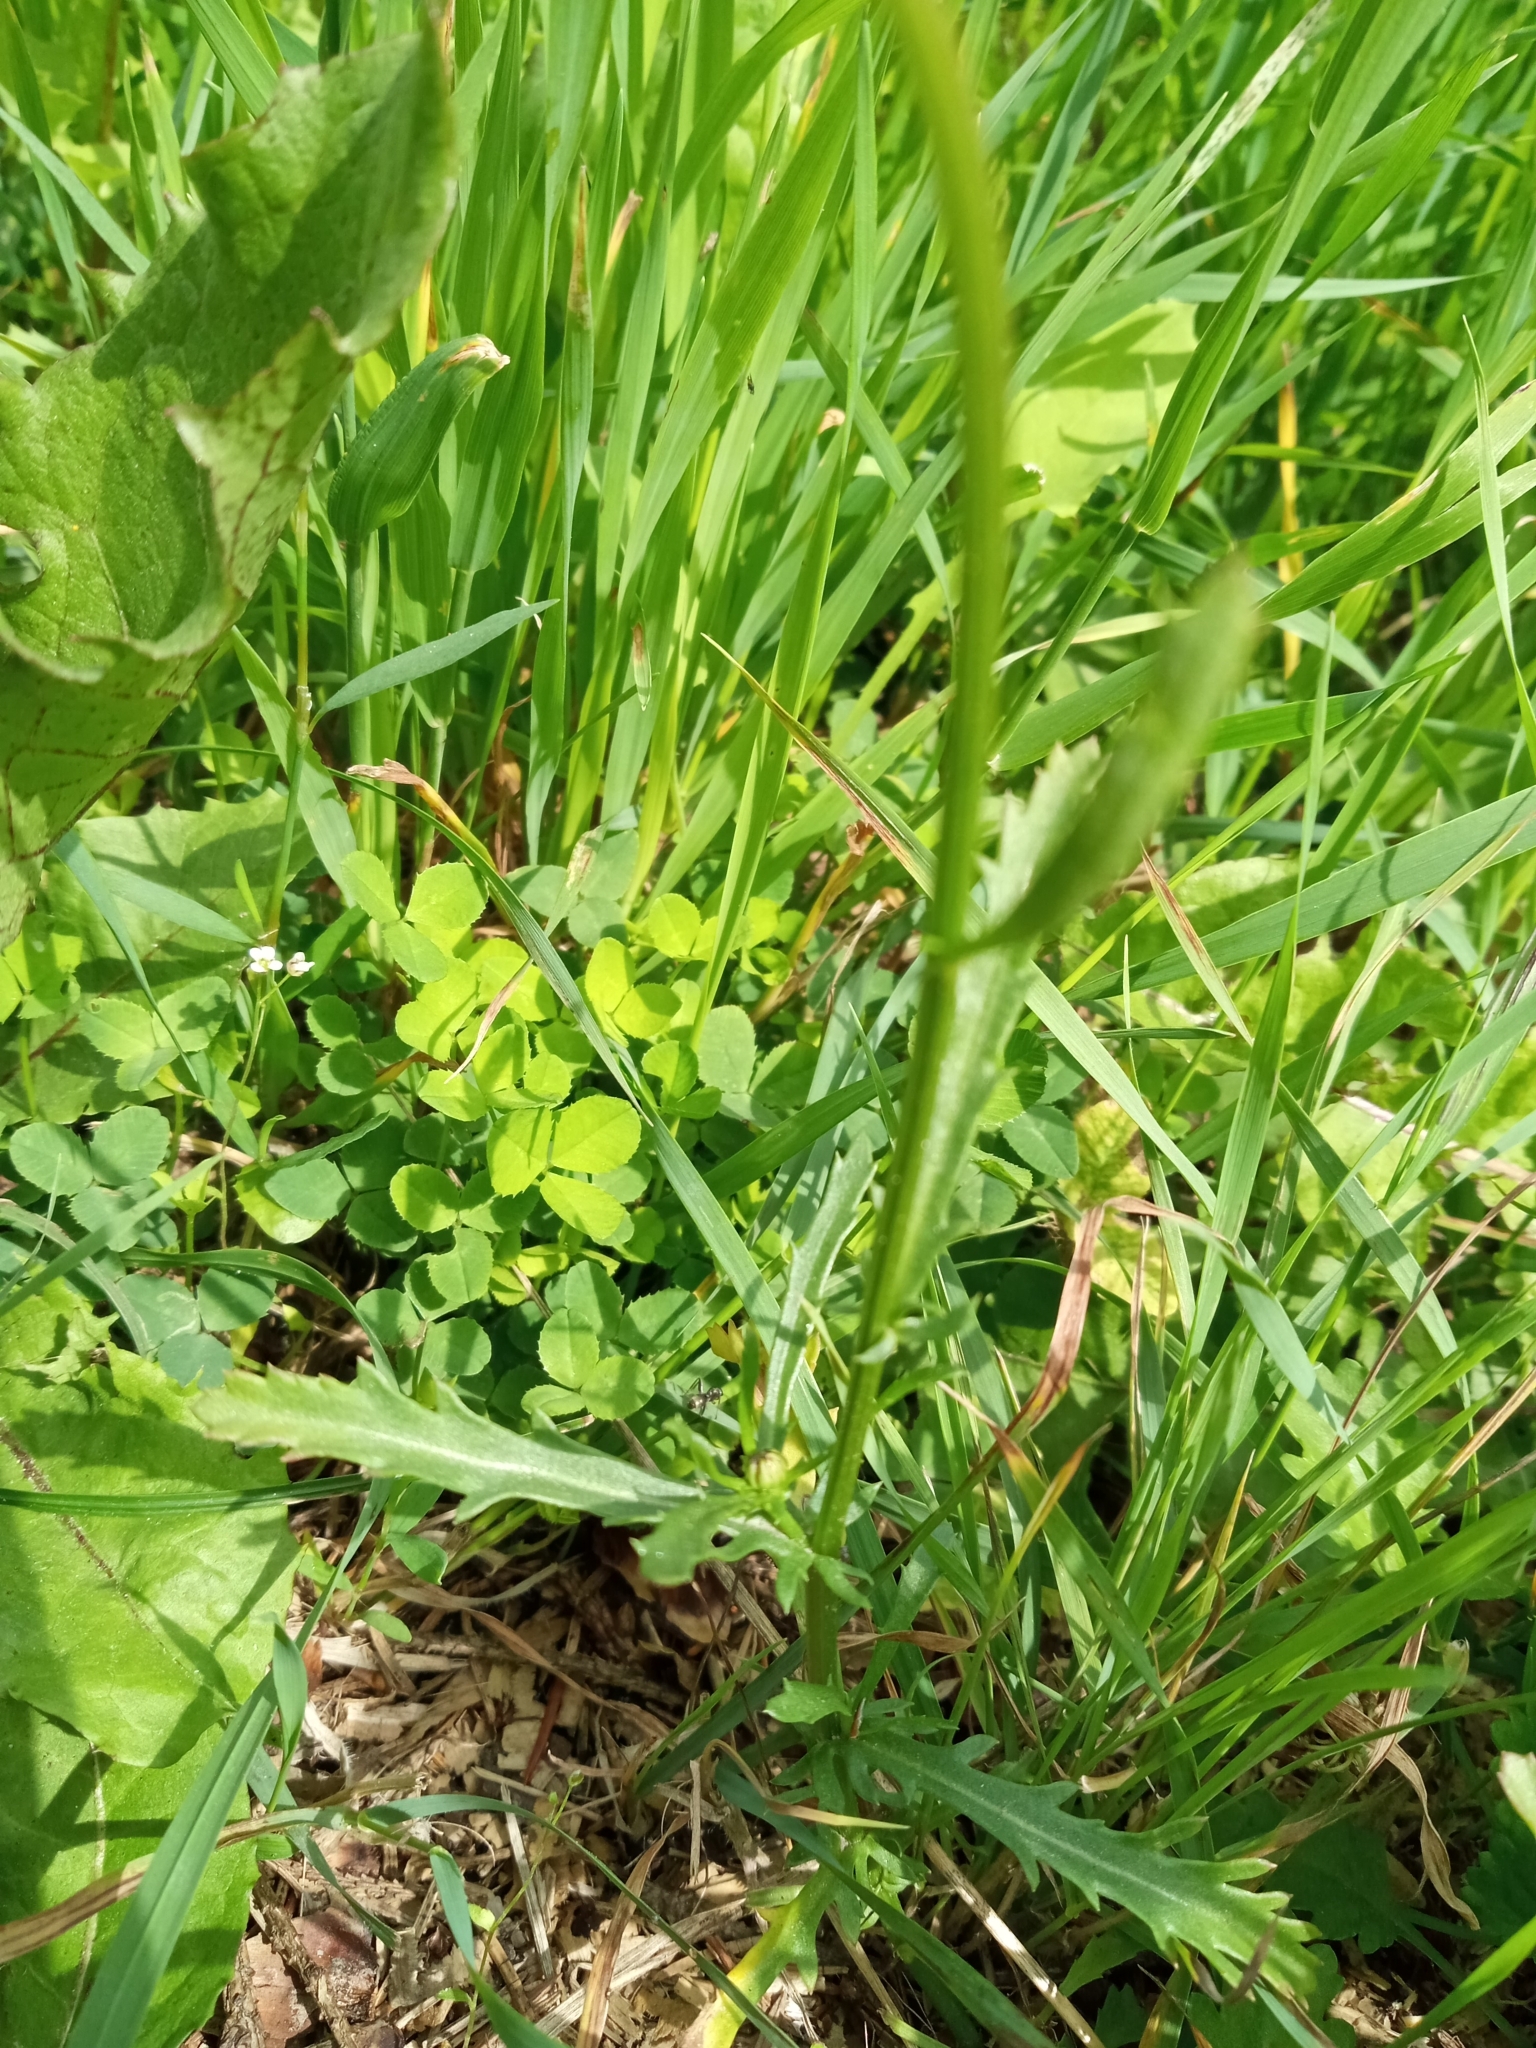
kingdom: Plantae
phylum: Tracheophyta
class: Magnoliopsida
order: Asterales
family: Asteraceae
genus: Leucanthemum
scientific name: Leucanthemum vulgare
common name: Oxeye daisy
